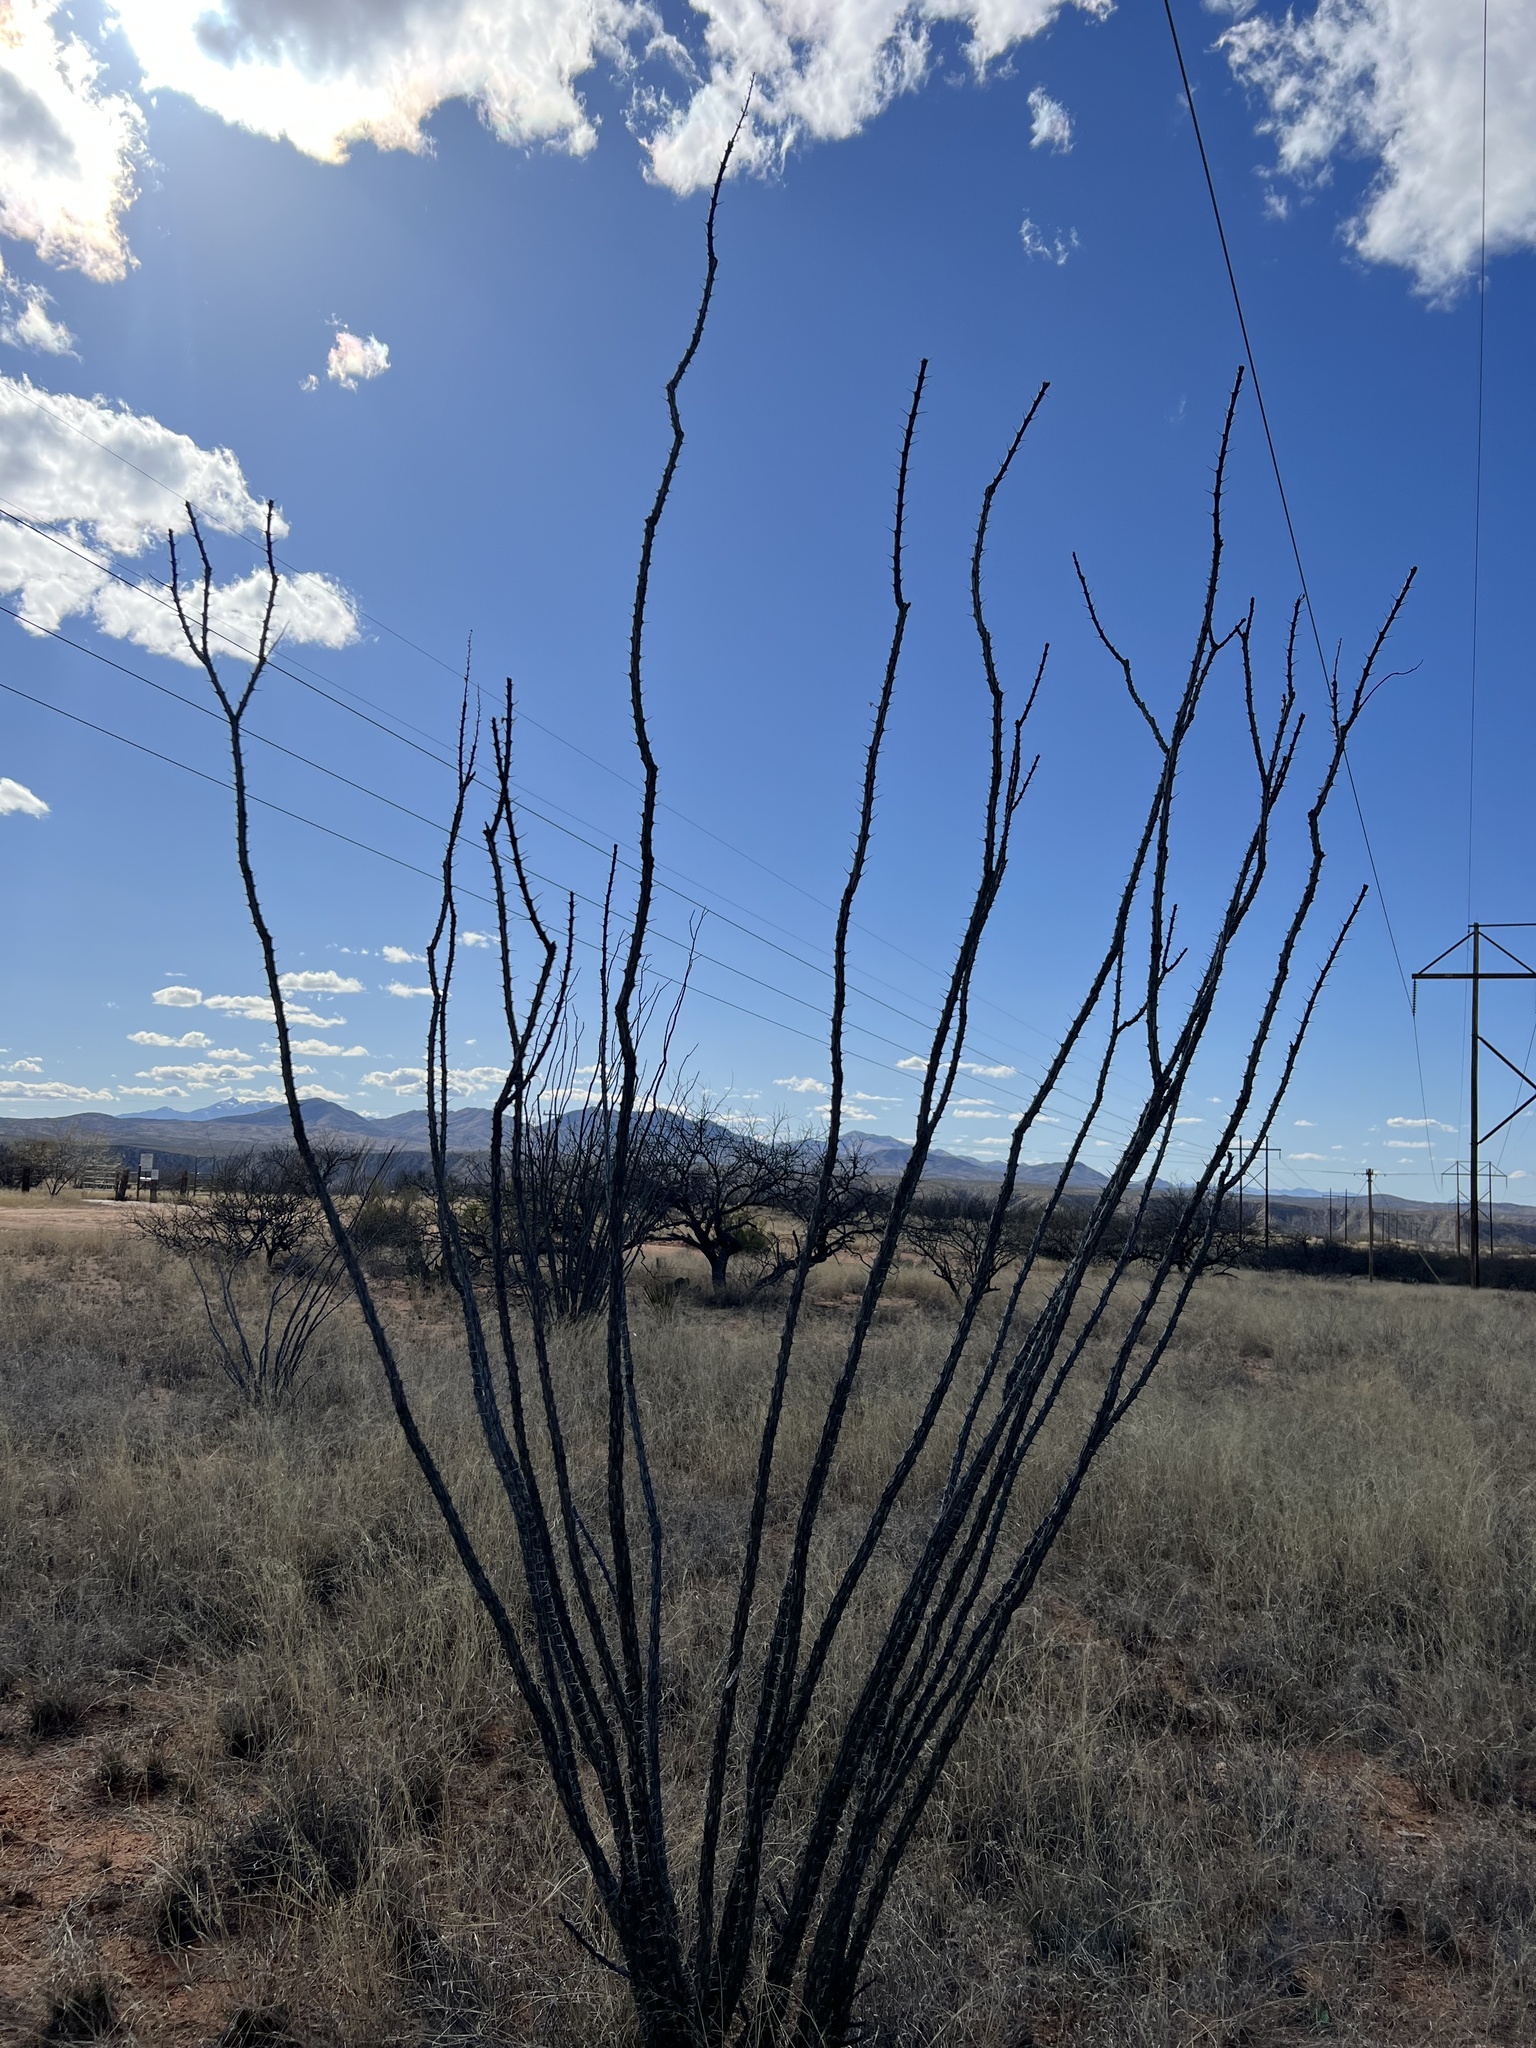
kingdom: Plantae
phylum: Tracheophyta
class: Magnoliopsida
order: Ericales
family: Fouquieriaceae
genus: Fouquieria
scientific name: Fouquieria splendens
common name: Vine-cactus
